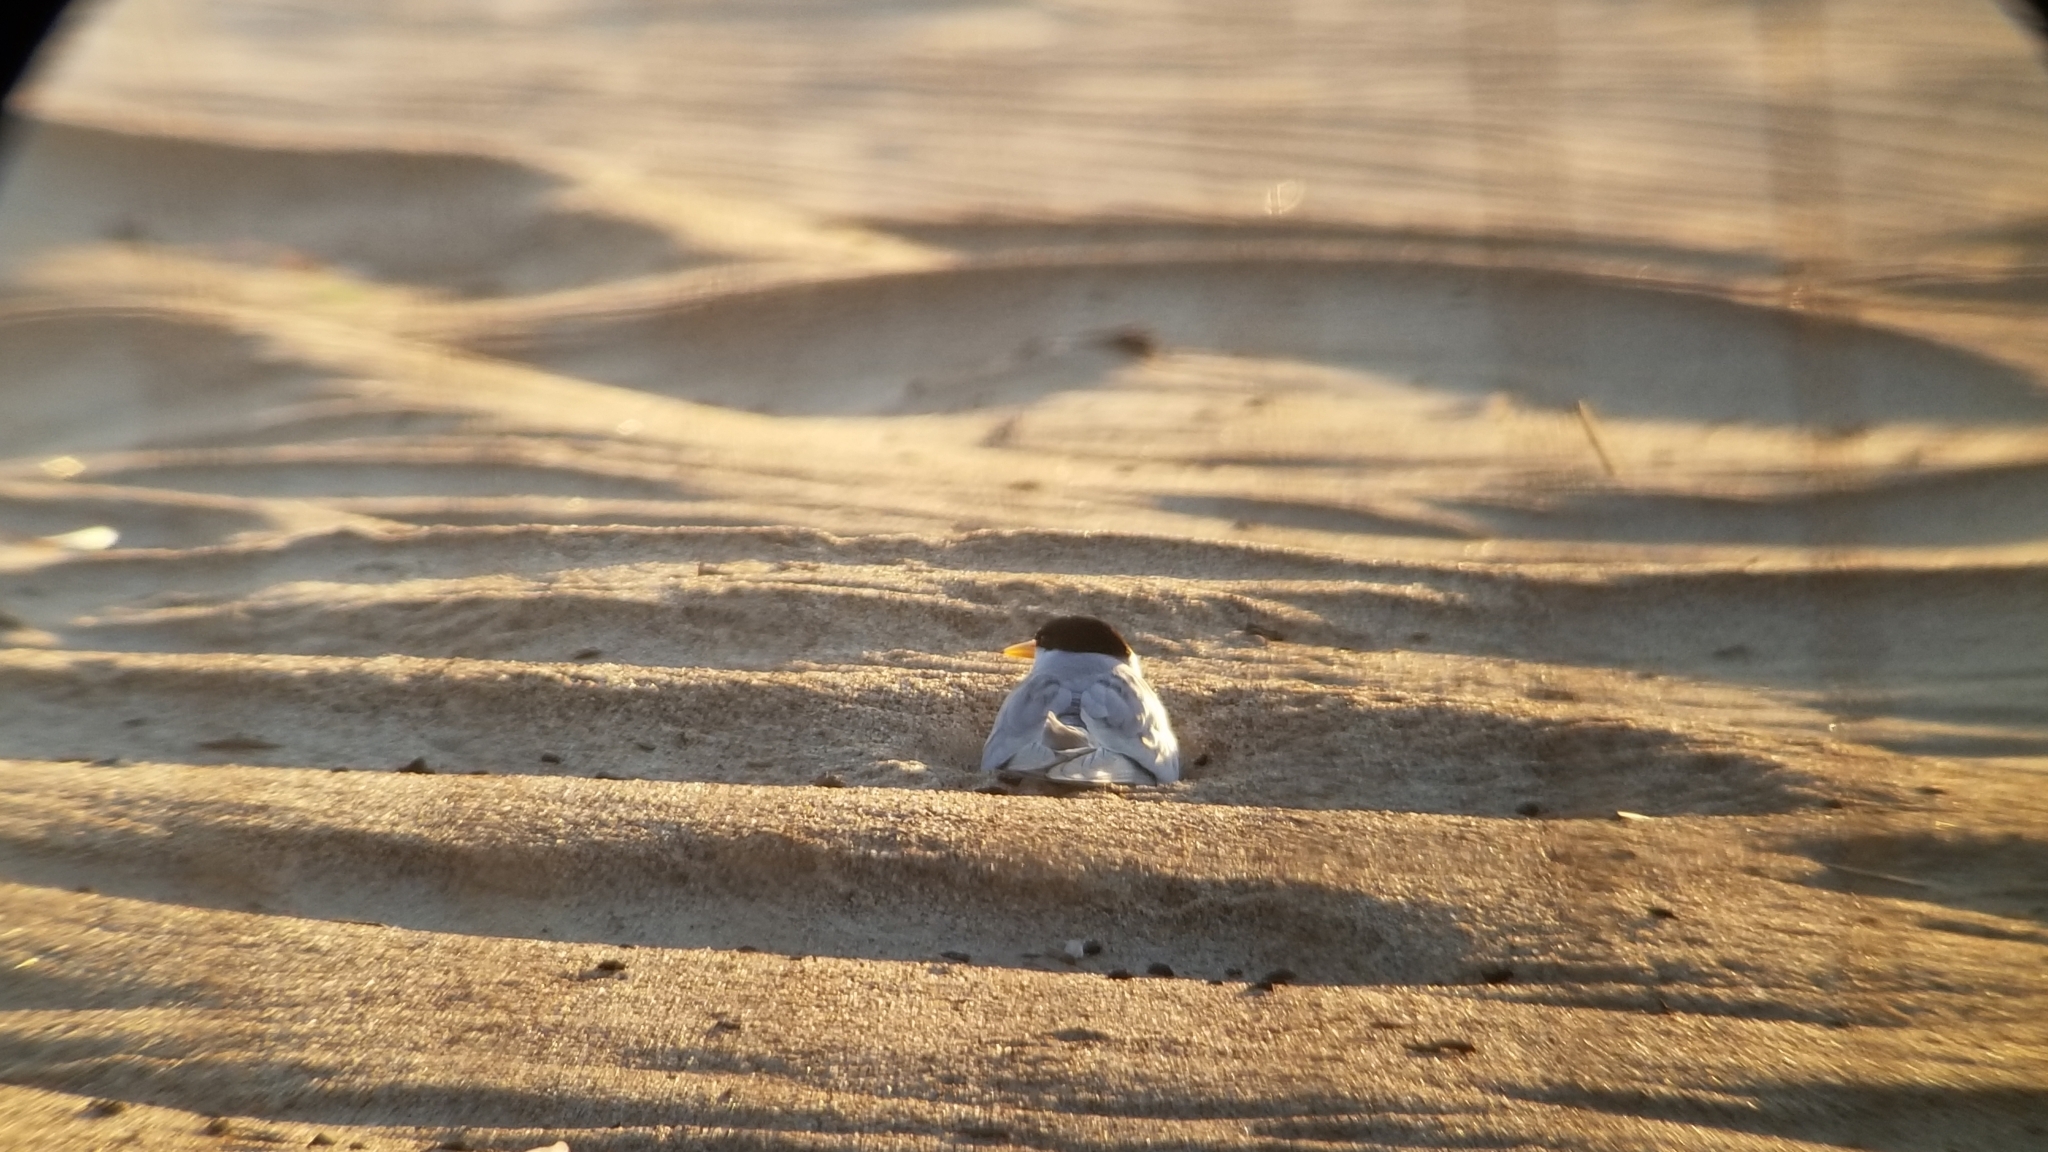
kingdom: Animalia
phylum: Chordata
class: Aves
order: Charadriiformes
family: Laridae
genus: Sternula
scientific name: Sternula antillarum
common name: Least tern
